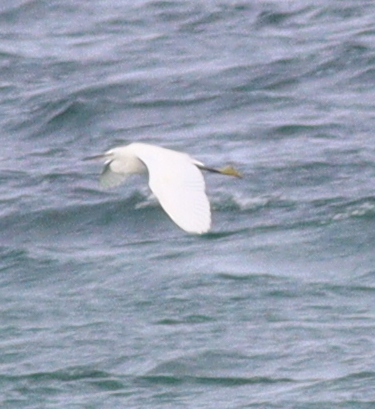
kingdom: Animalia
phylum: Chordata
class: Aves
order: Pelecaniformes
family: Ardeidae
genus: Egretta
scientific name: Egretta garzetta
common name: Little egret
